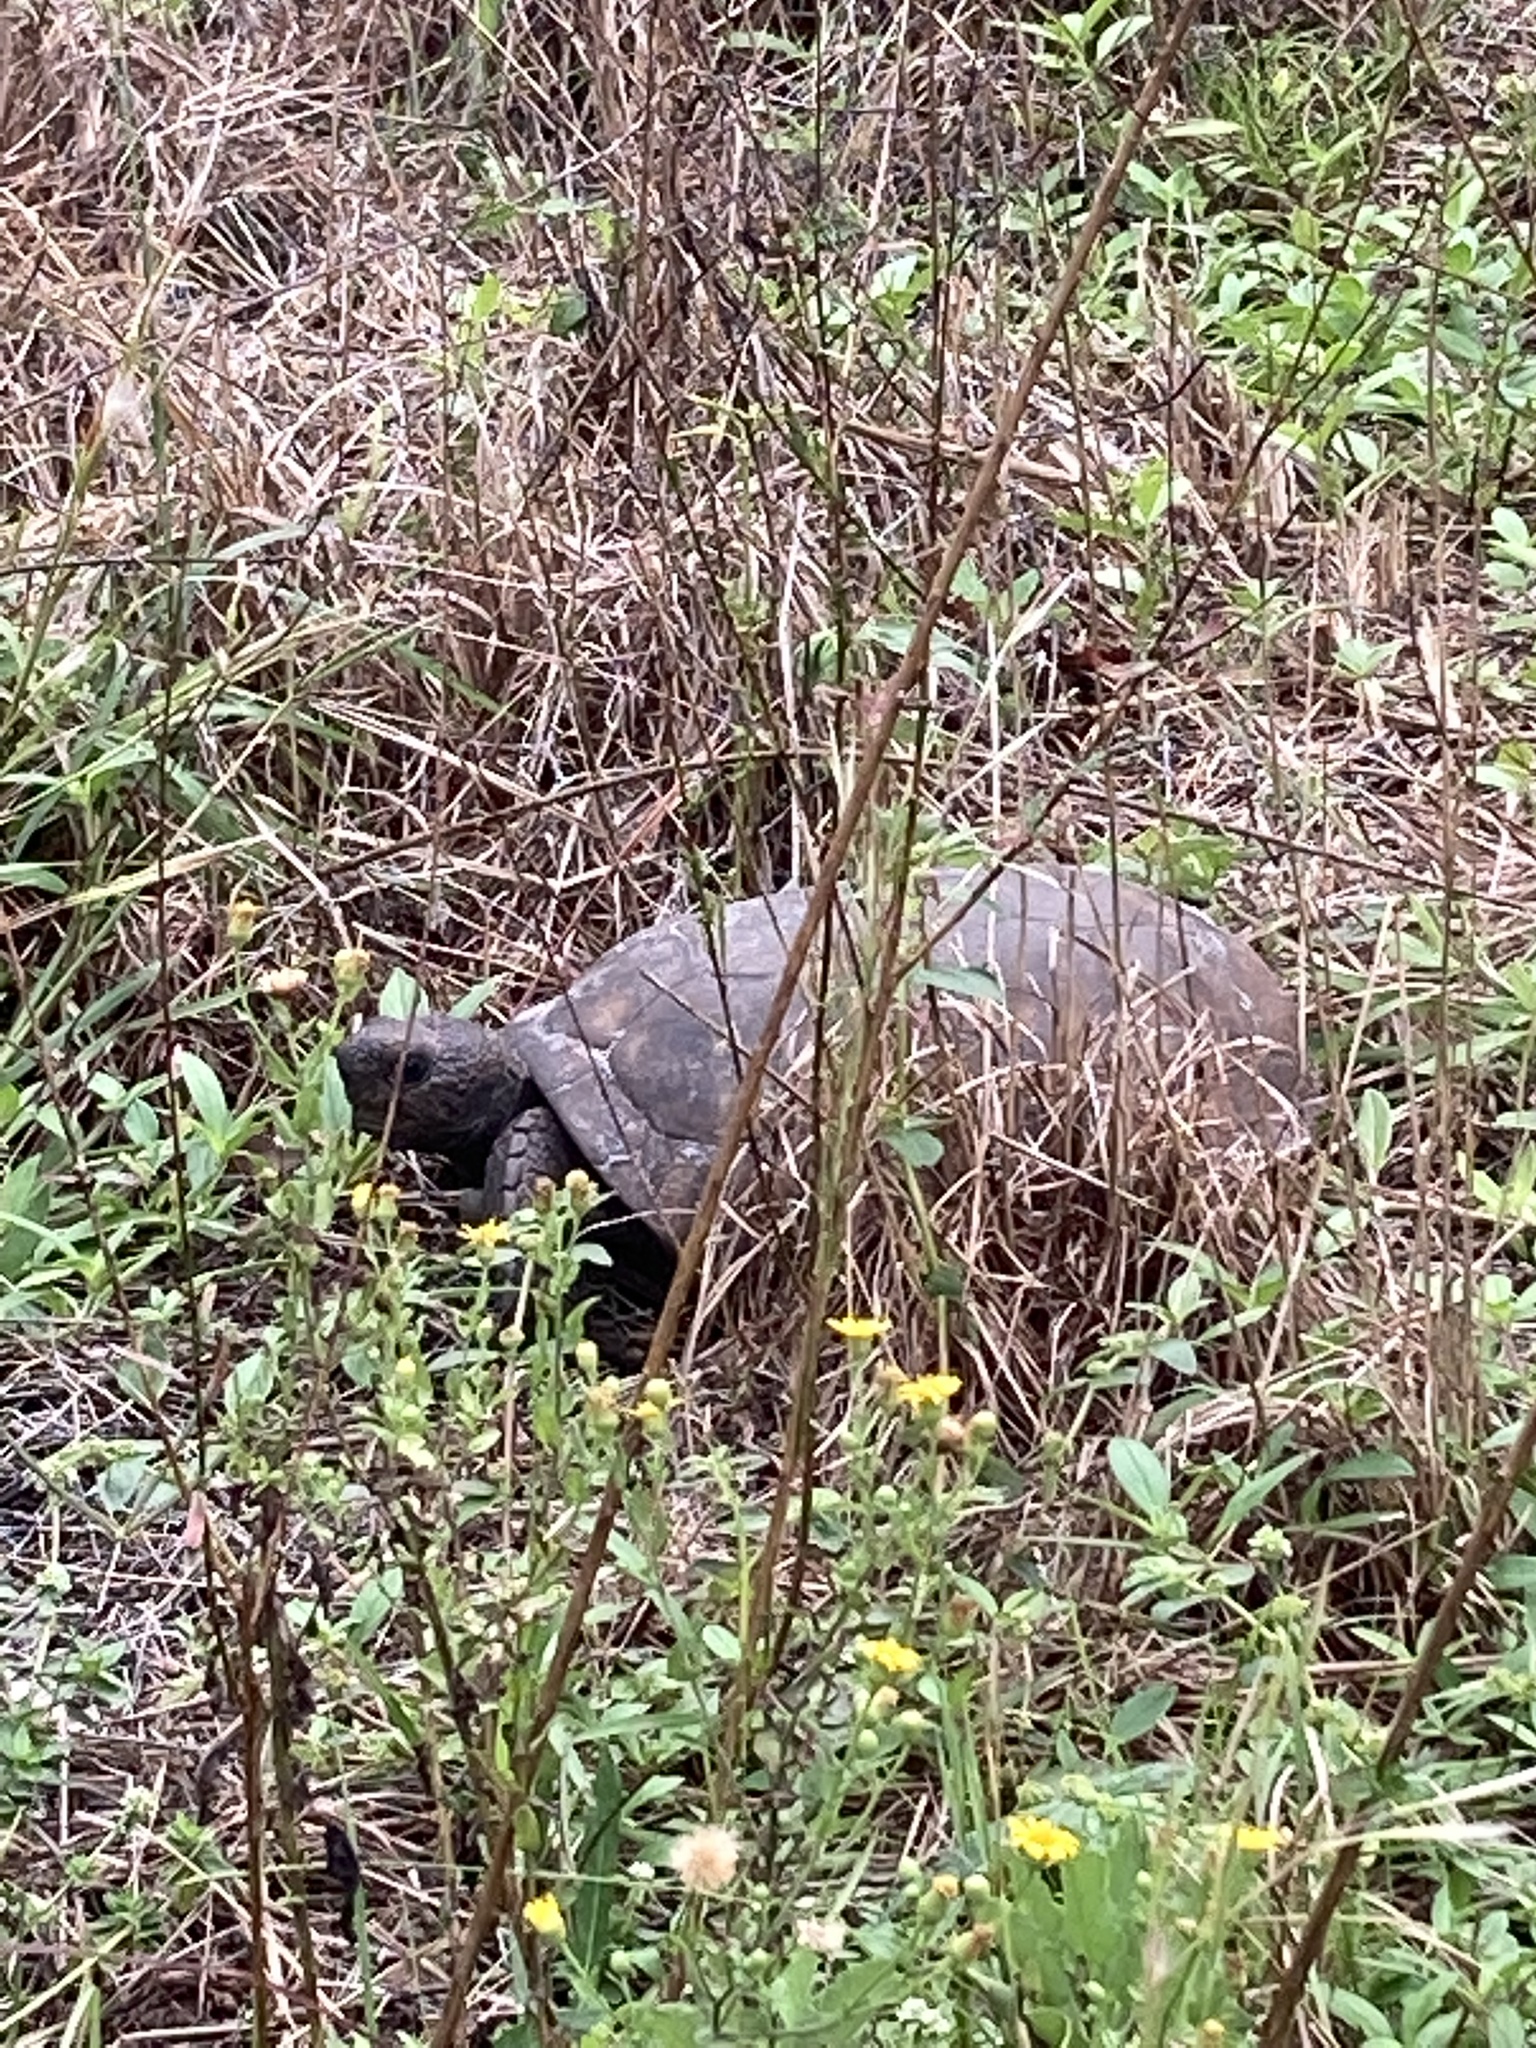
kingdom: Animalia
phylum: Chordata
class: Testudines
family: Testudinidae
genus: Gopherus
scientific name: Gopherus polyphemus
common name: Florida gopher tortoise
